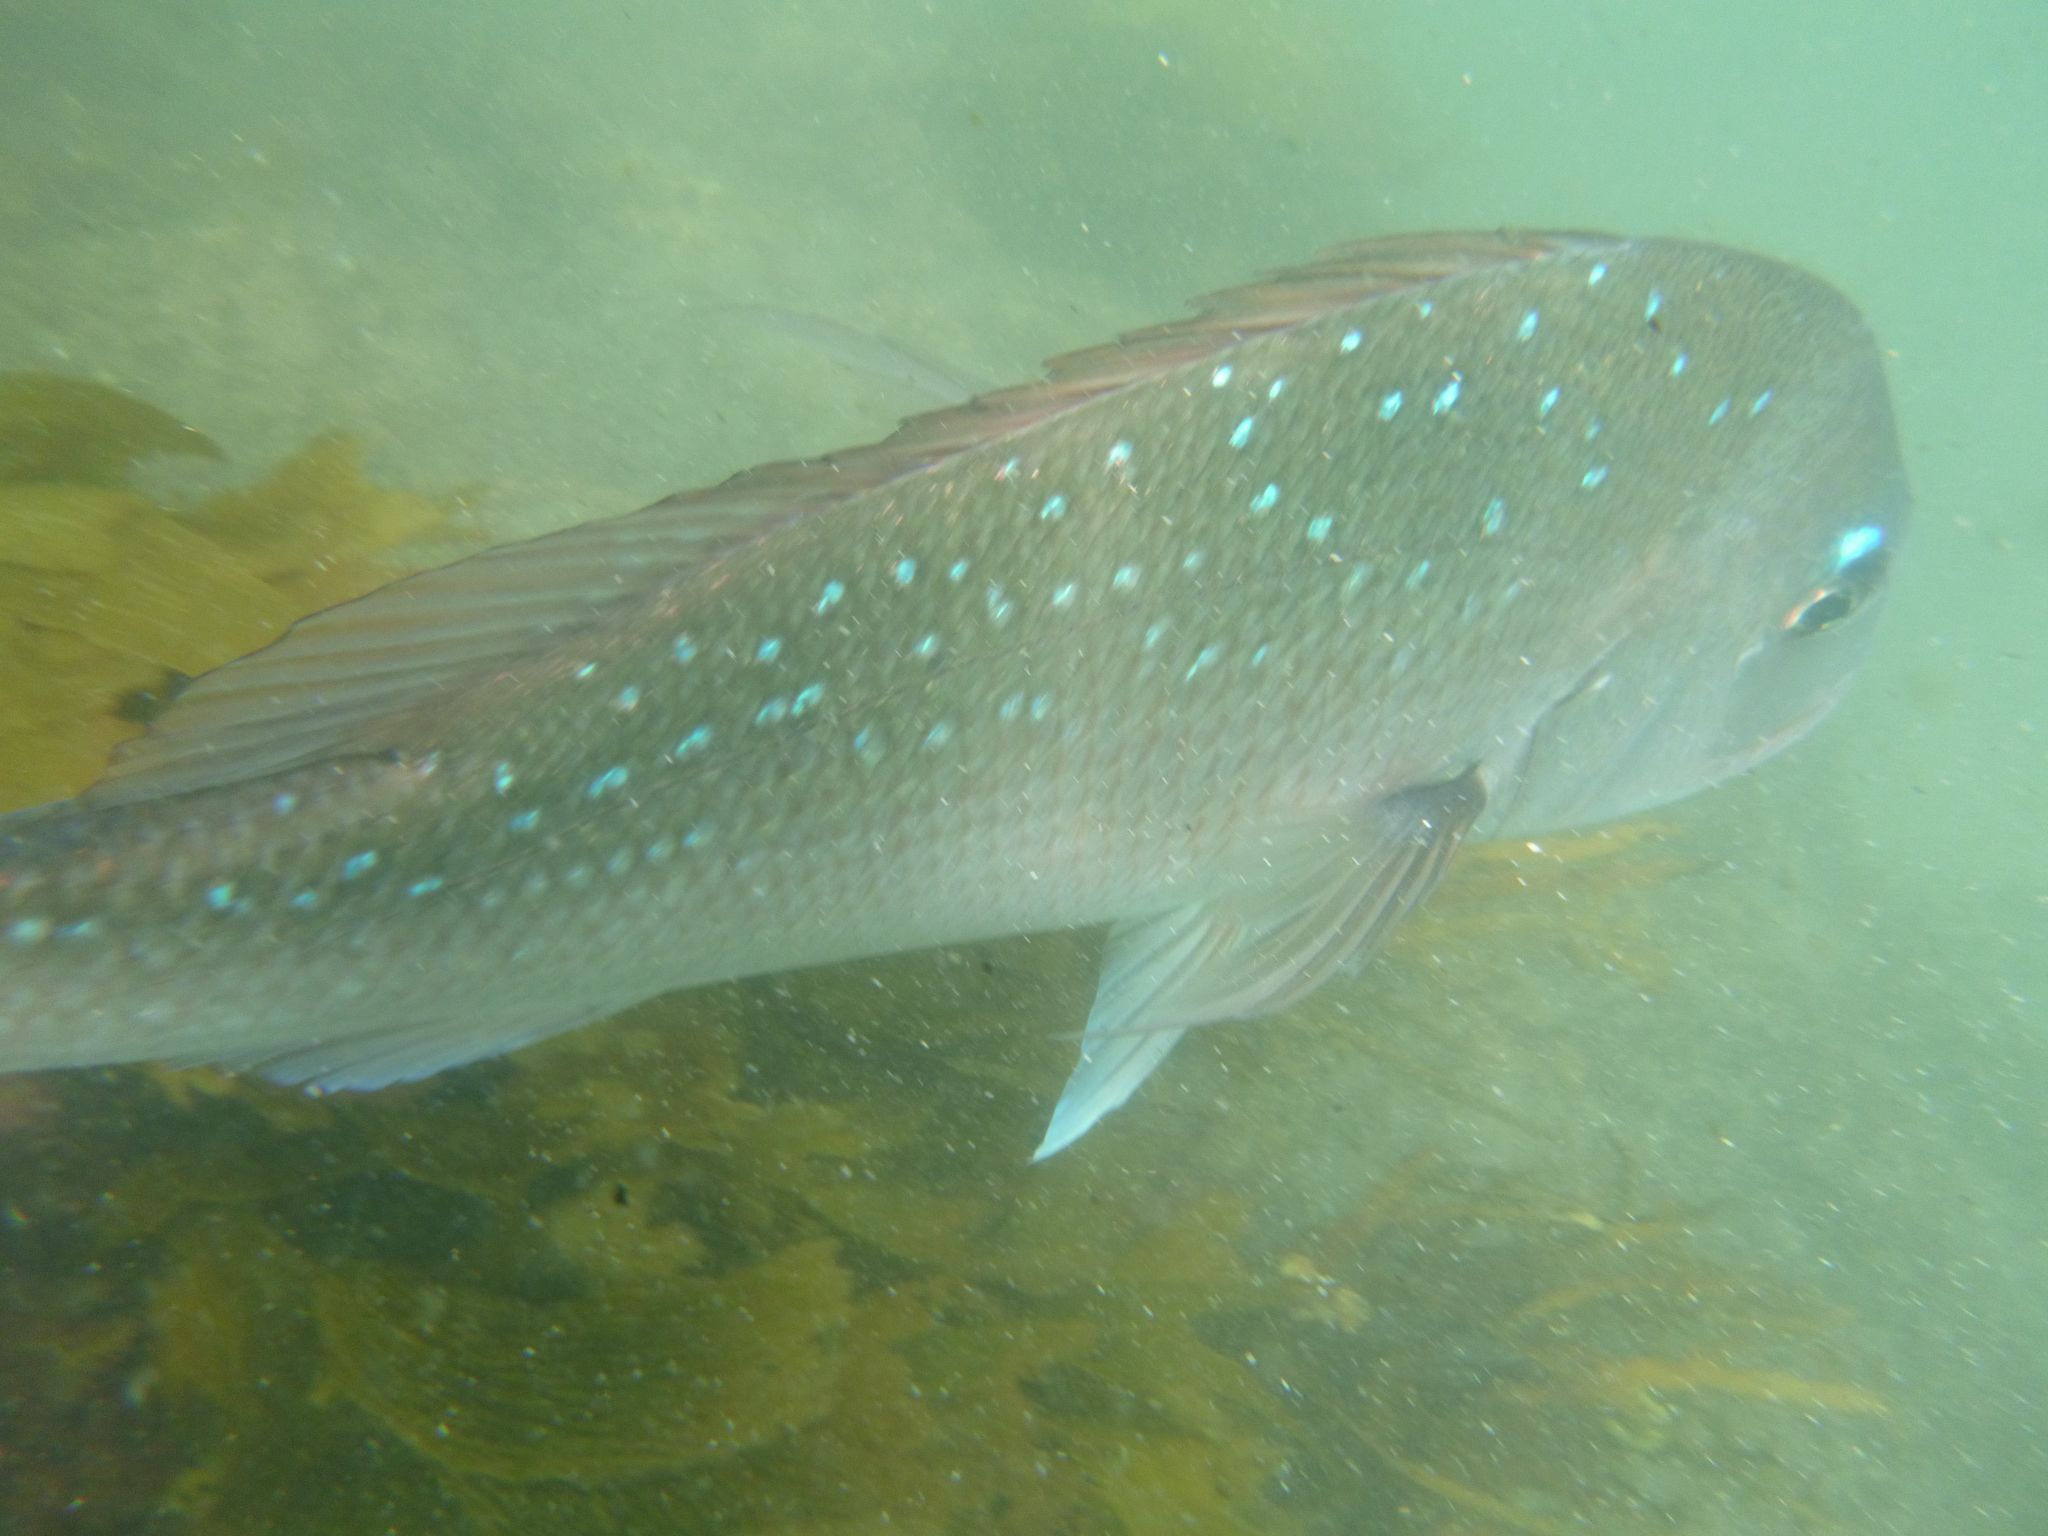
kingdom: Animalia
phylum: Chordata
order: Perciformes
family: Sparidae
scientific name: Sparidae
